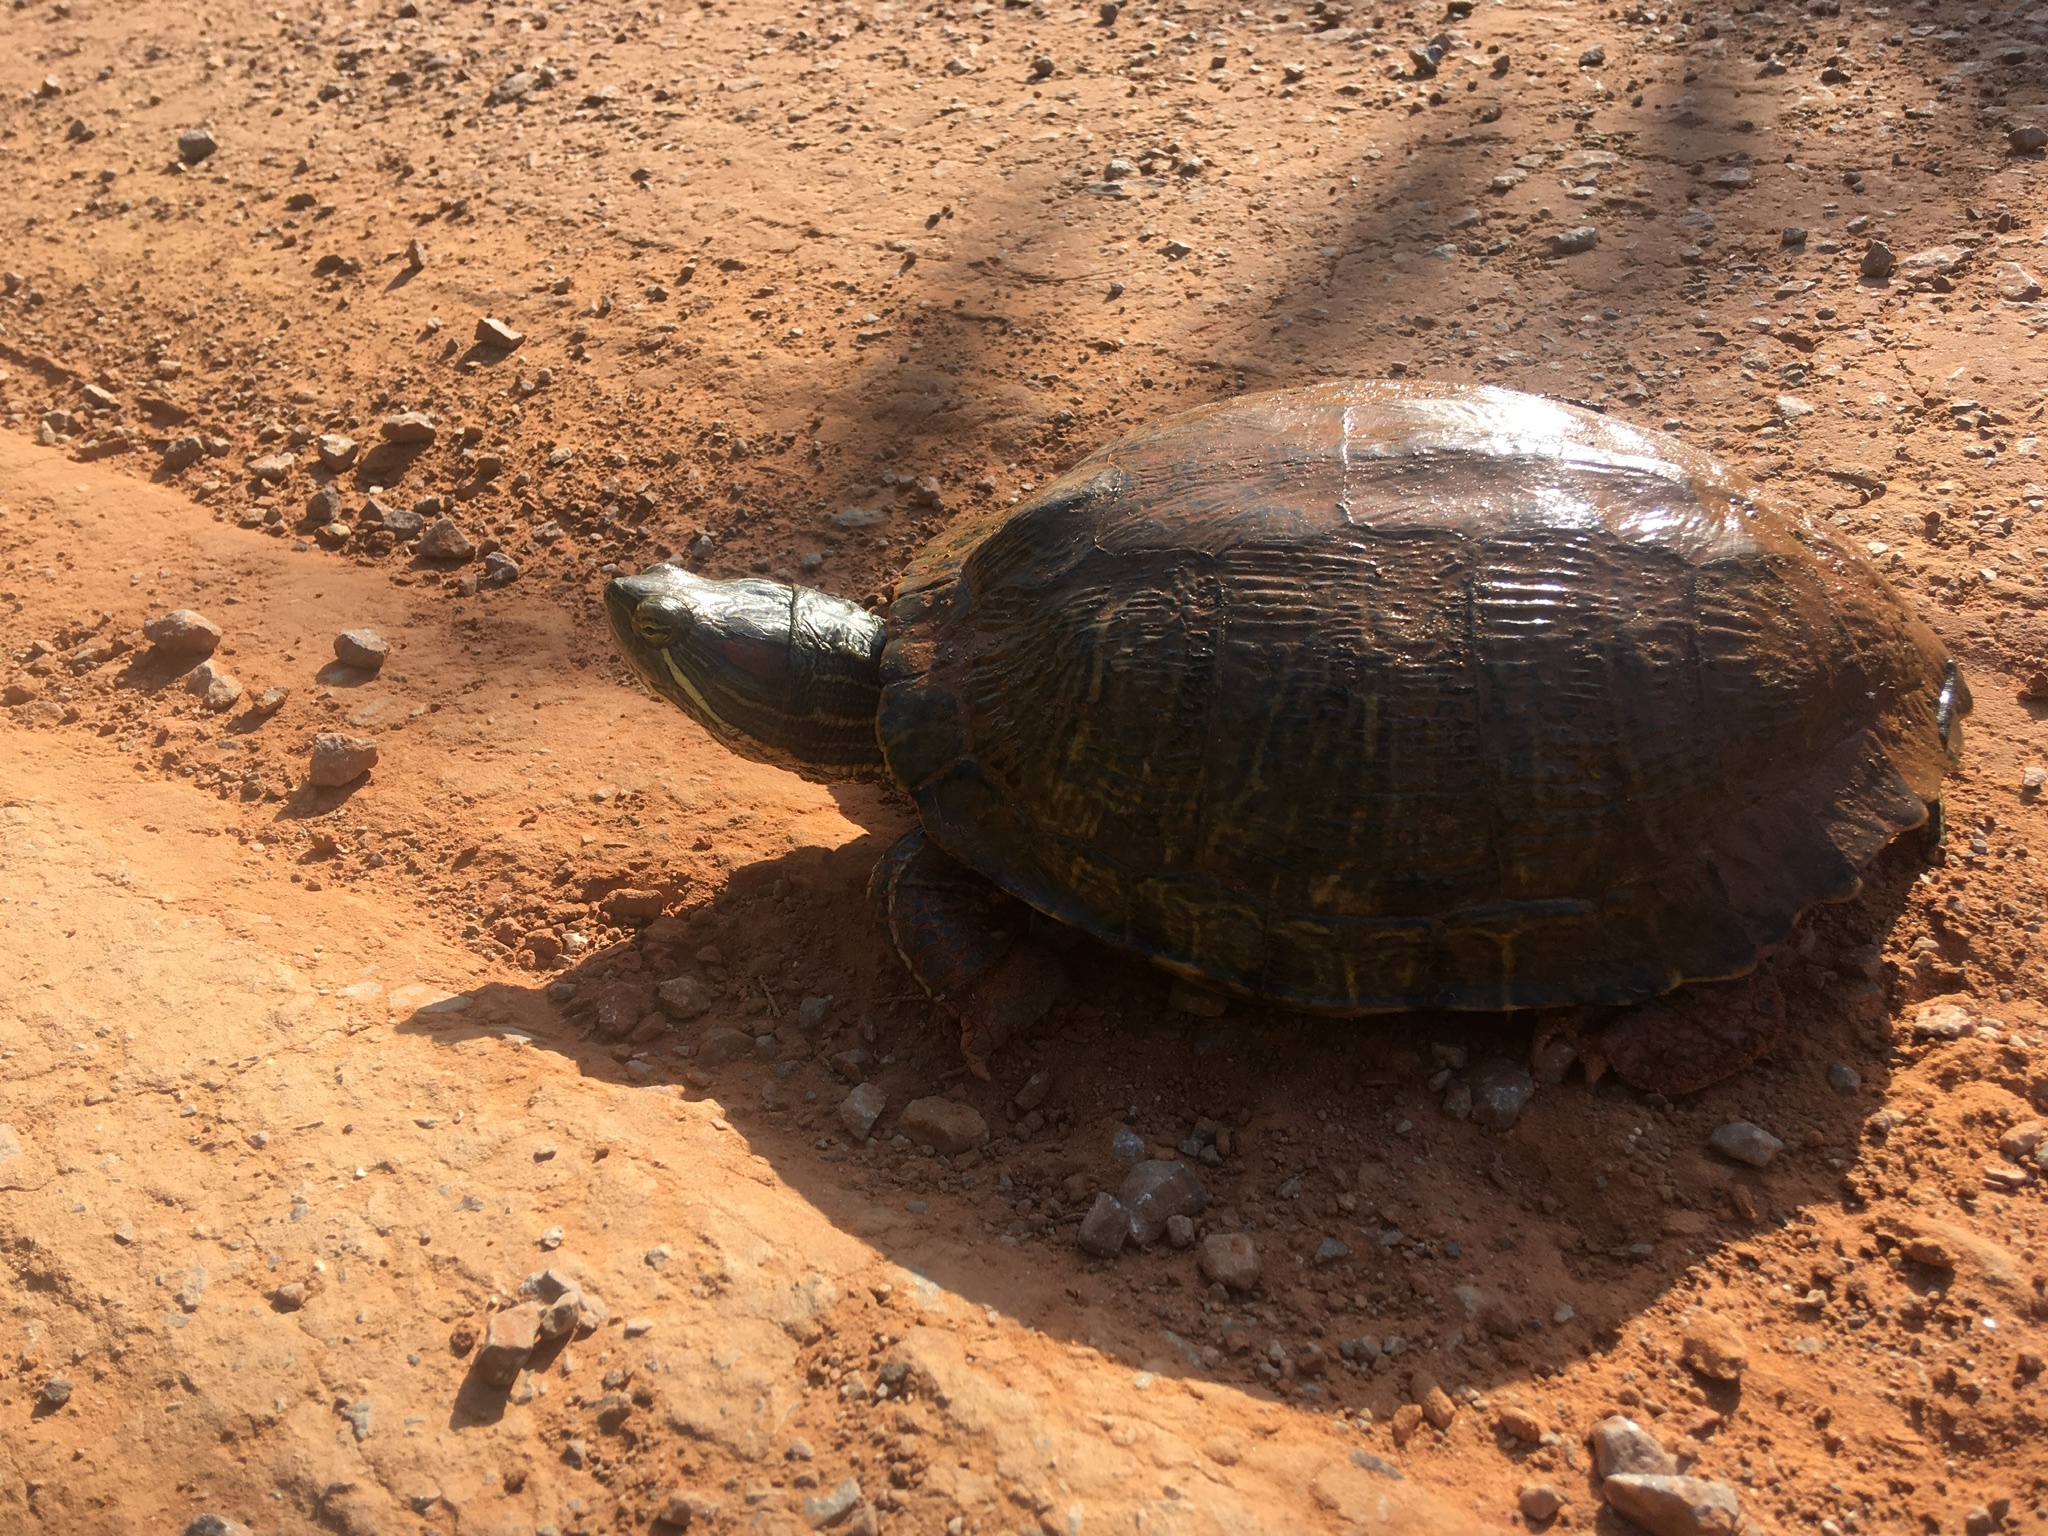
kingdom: Animalia
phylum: Chordata
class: Testudines
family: Emydidae
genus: Trachemys
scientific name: Trachemys scripta
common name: Slider
